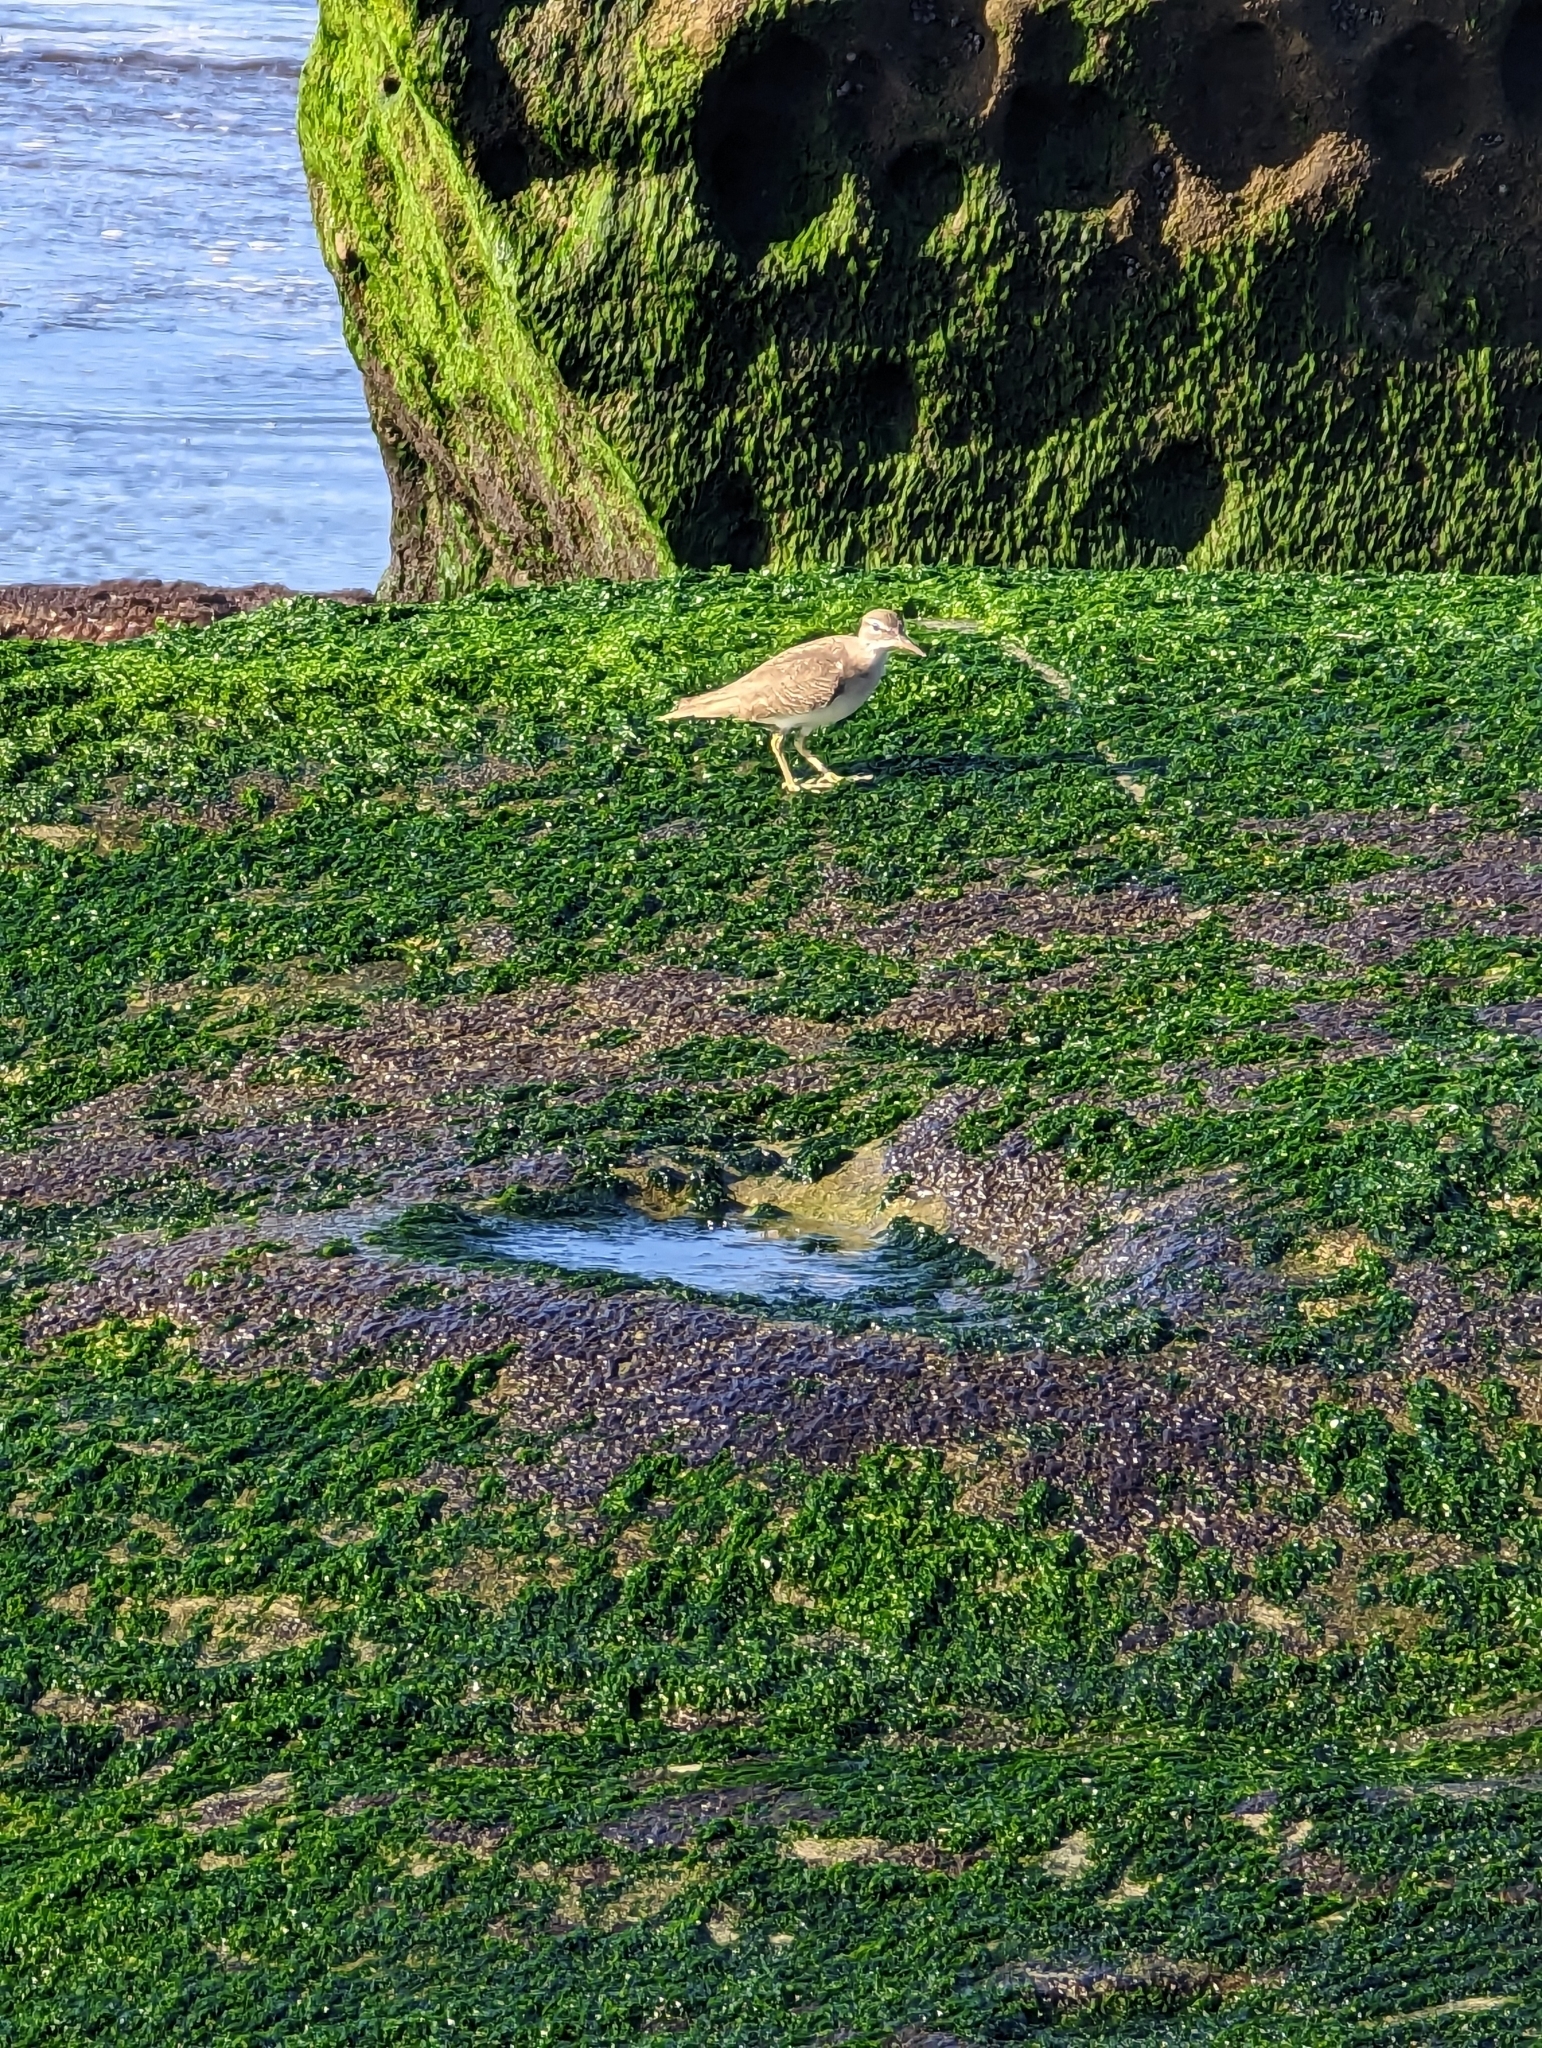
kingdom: Animalia
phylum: Chordata
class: Aves
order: Charadriiformes
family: Scolopacidae
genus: Actitis
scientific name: Actitis macularius
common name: Spotted sandpiper
